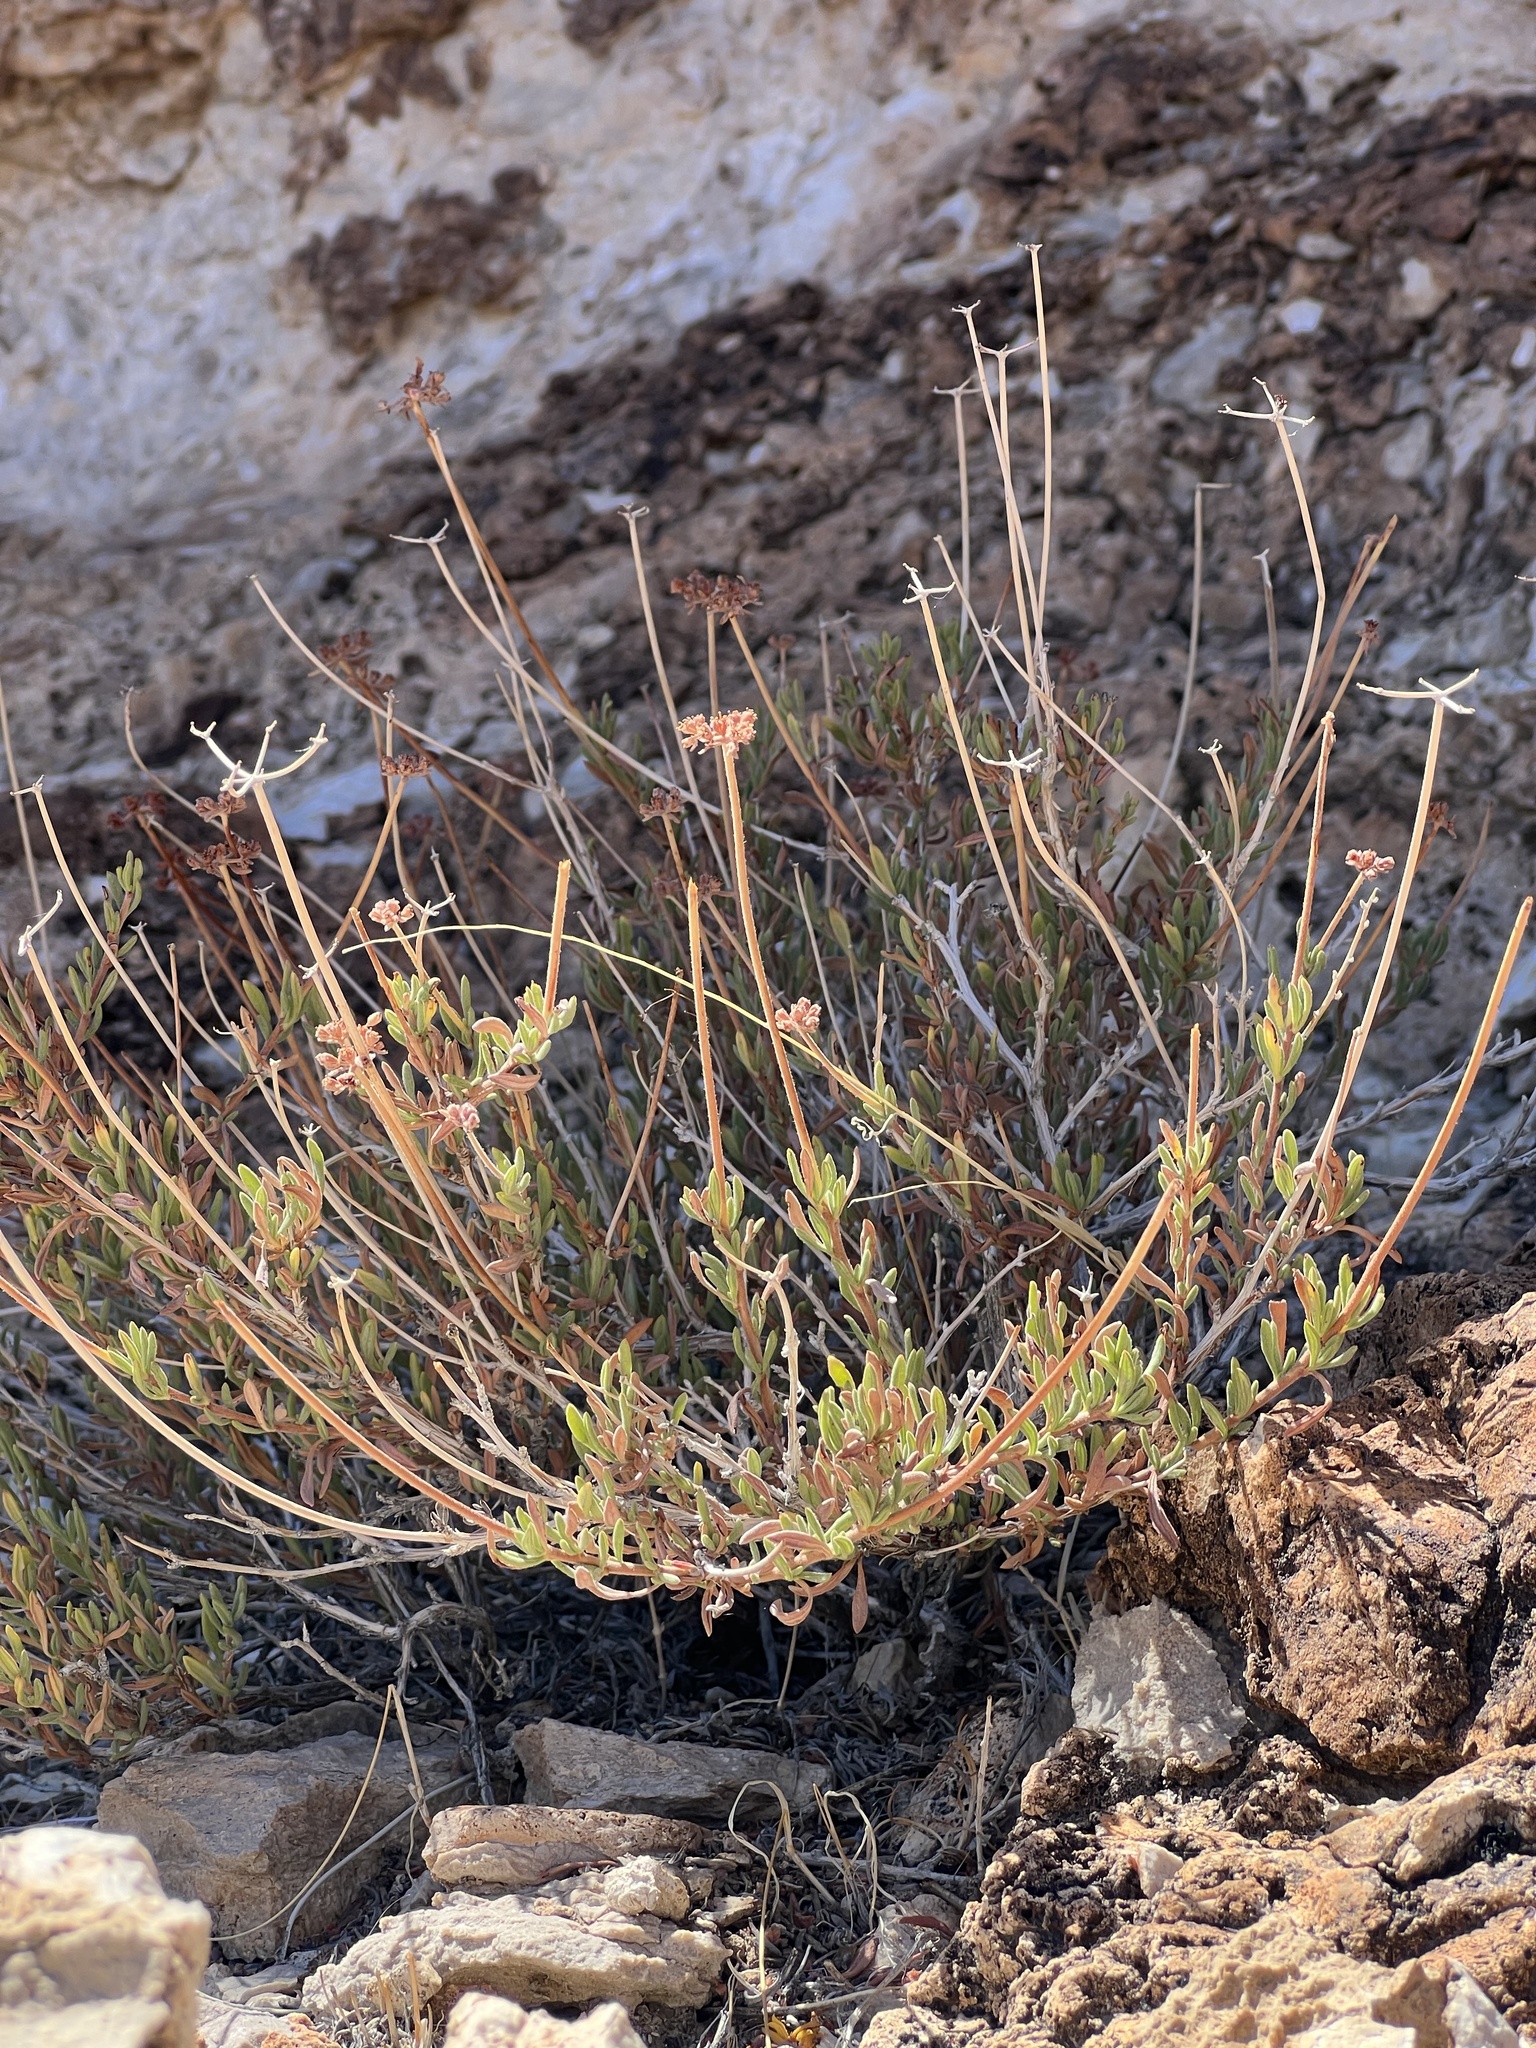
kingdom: Plantae
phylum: Tracheophyta
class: Magnoliopsida
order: Caryophyllales
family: Polygonaceae
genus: Eriogonum
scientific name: Eriogonum fasciculatum
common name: California wild buckwheat
